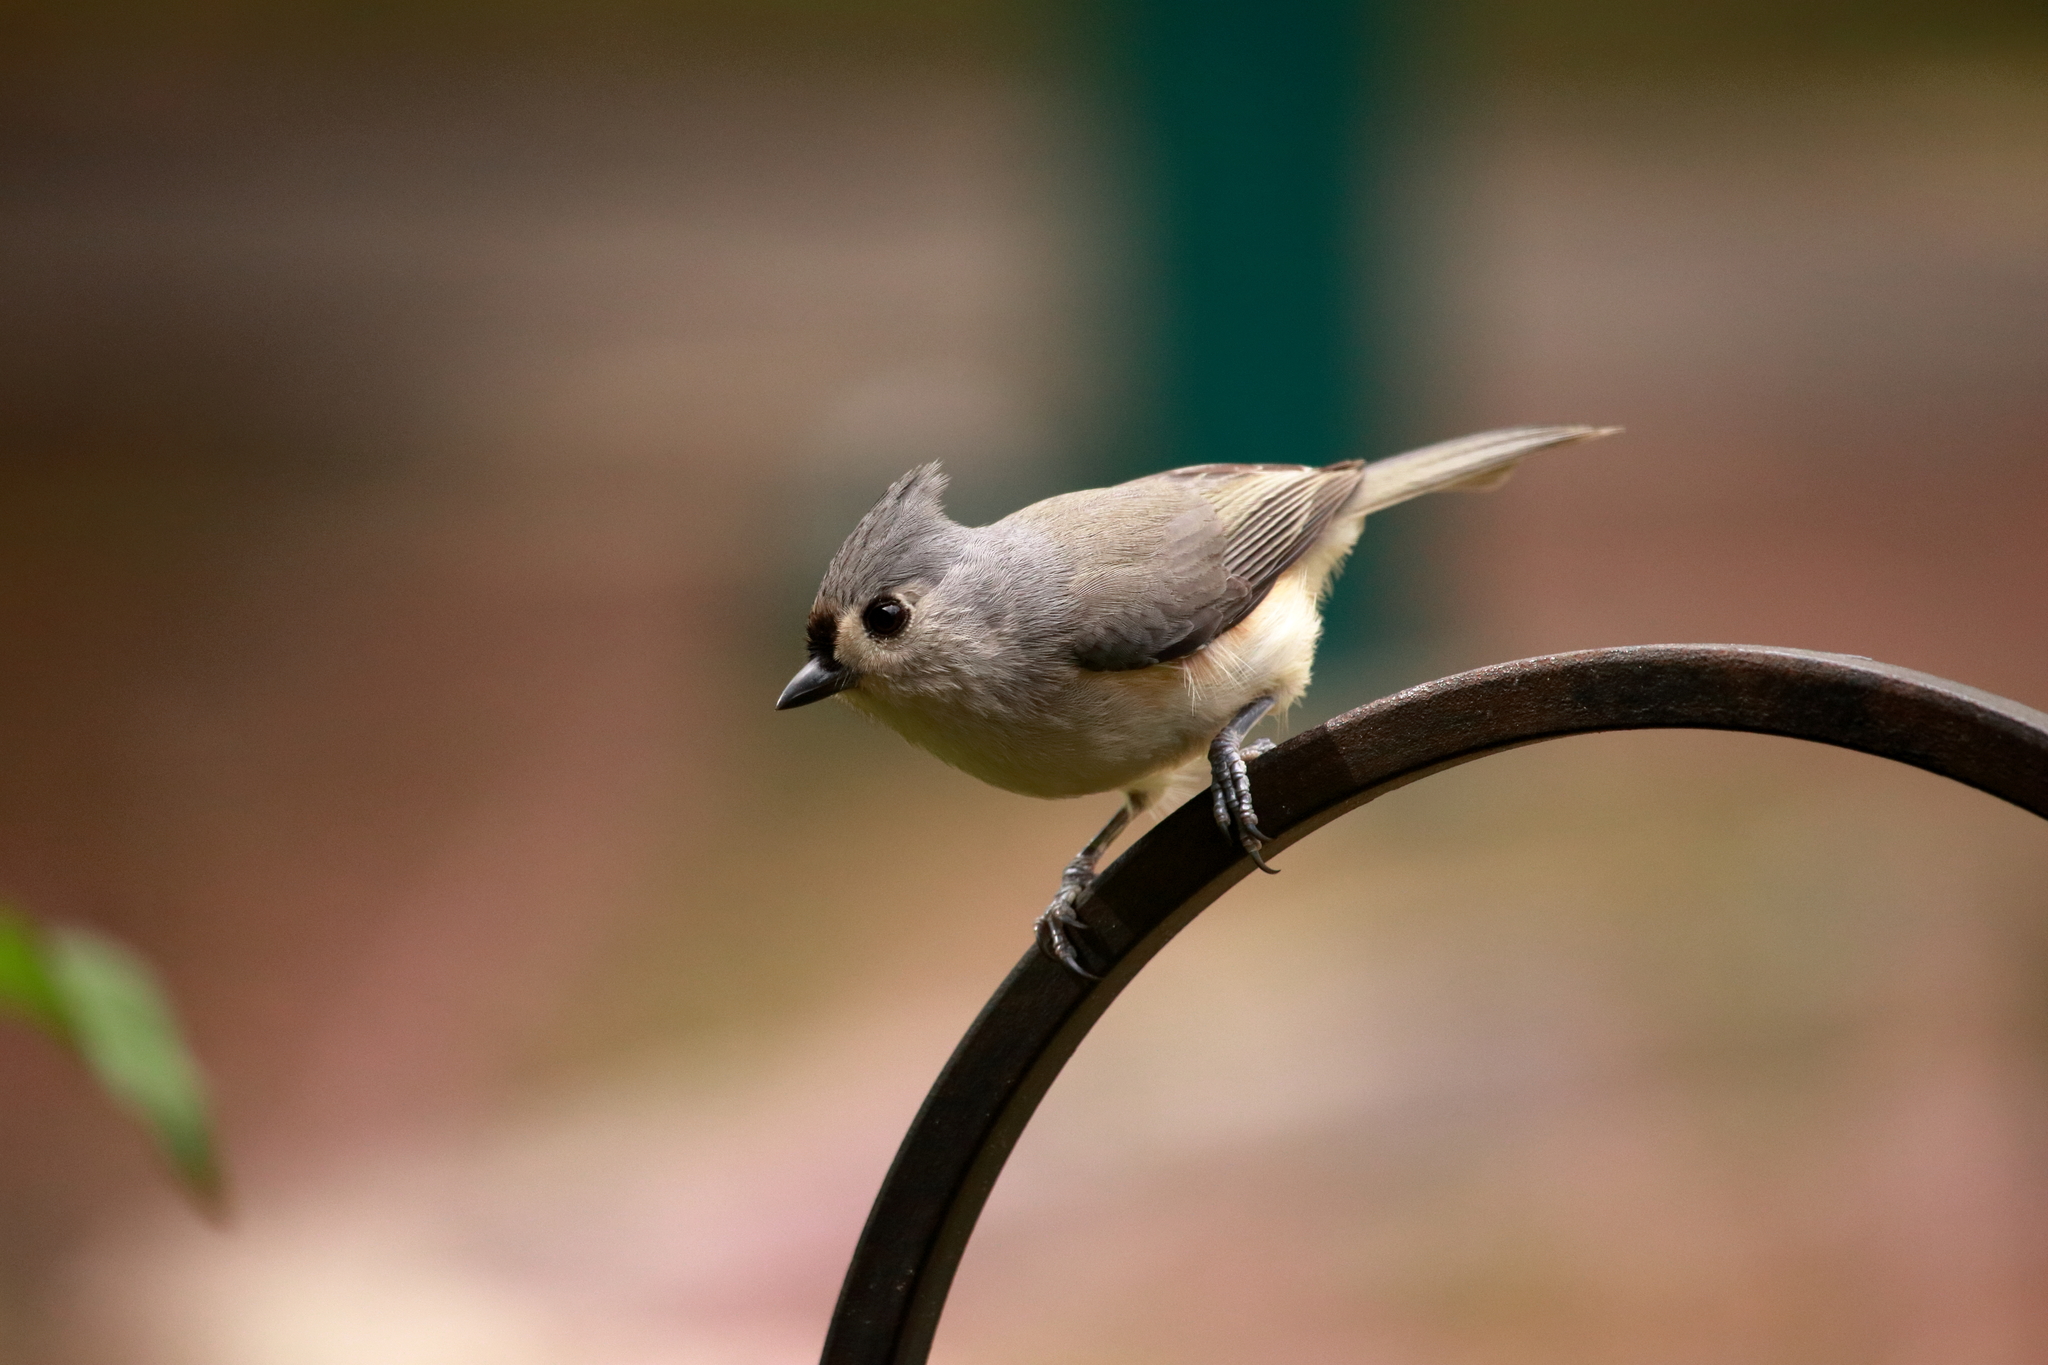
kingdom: Animalia
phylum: Chordata
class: Aves
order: Passeriformes
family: Paridae
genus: Baeolophus
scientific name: Baeolophus bicolor
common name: Tufted titmouse
